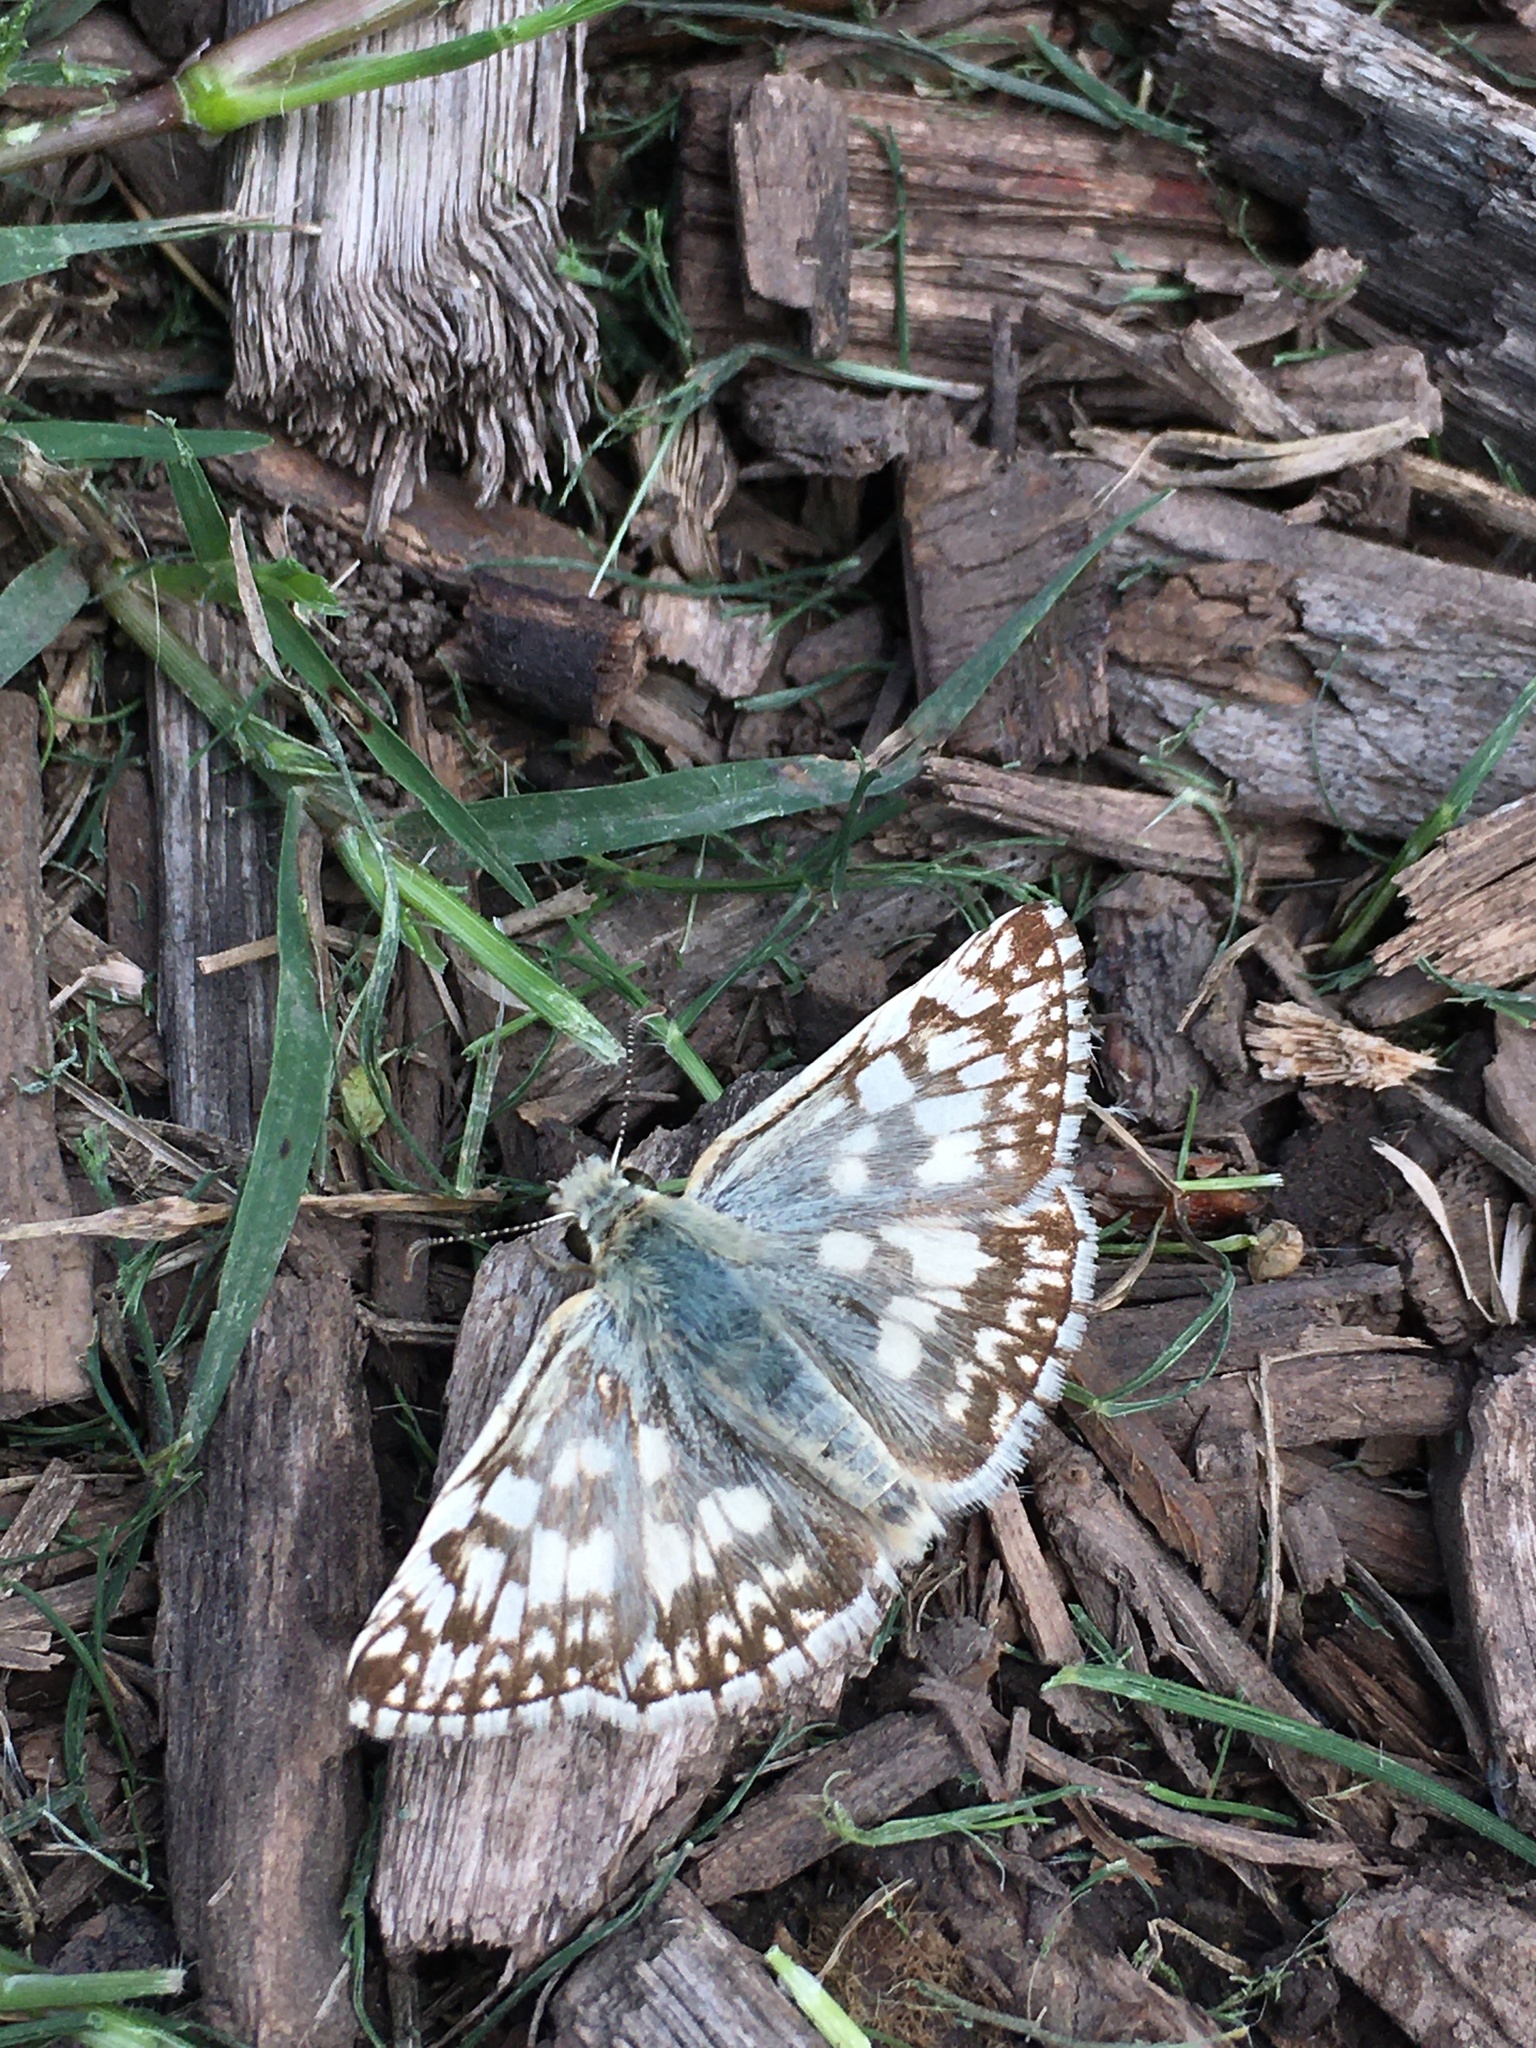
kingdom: Animalia
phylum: Arthropoda
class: Insecta
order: Lepidoptera
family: Hesperiidae
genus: Heliopetes
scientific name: Heliopetes americanus
